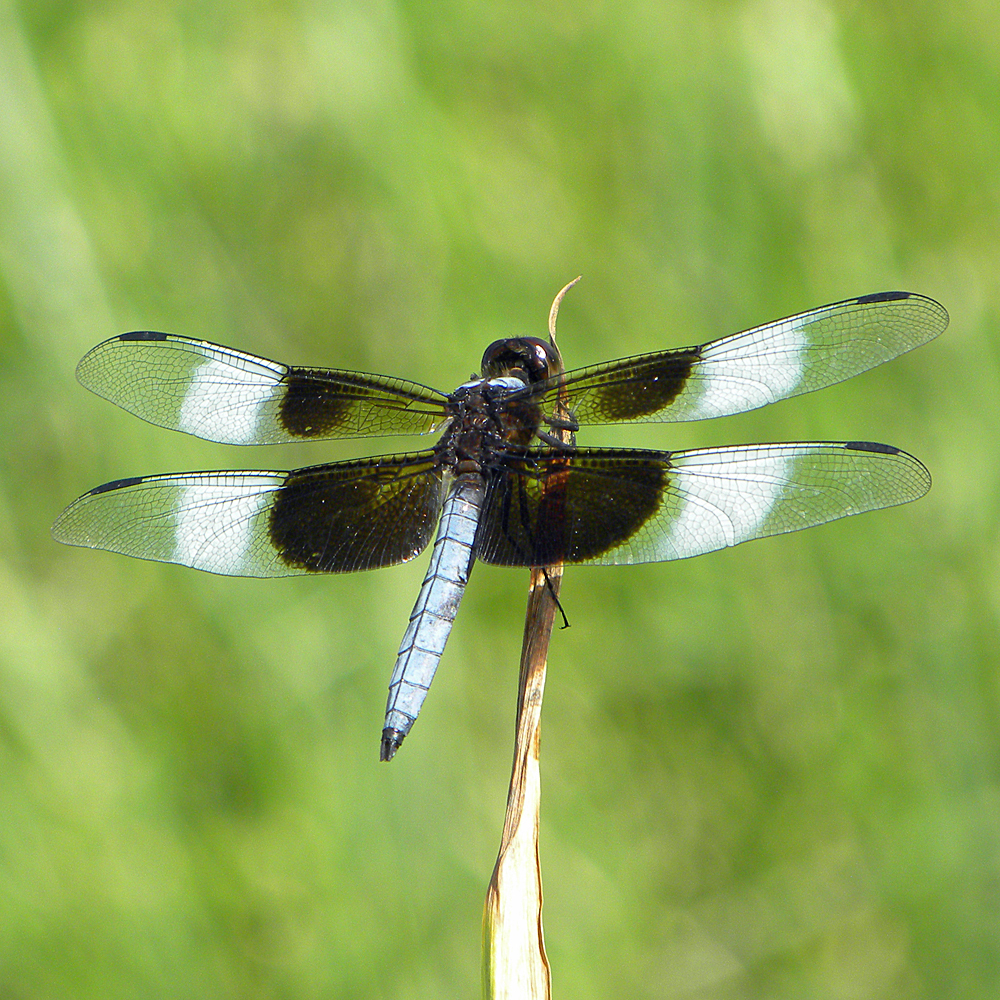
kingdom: Animalia
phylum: Arthropoda
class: Insecta
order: Odonata
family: Libellulidae
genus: Libellula
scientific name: Libellula luctuosa
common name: Widow skimmer
